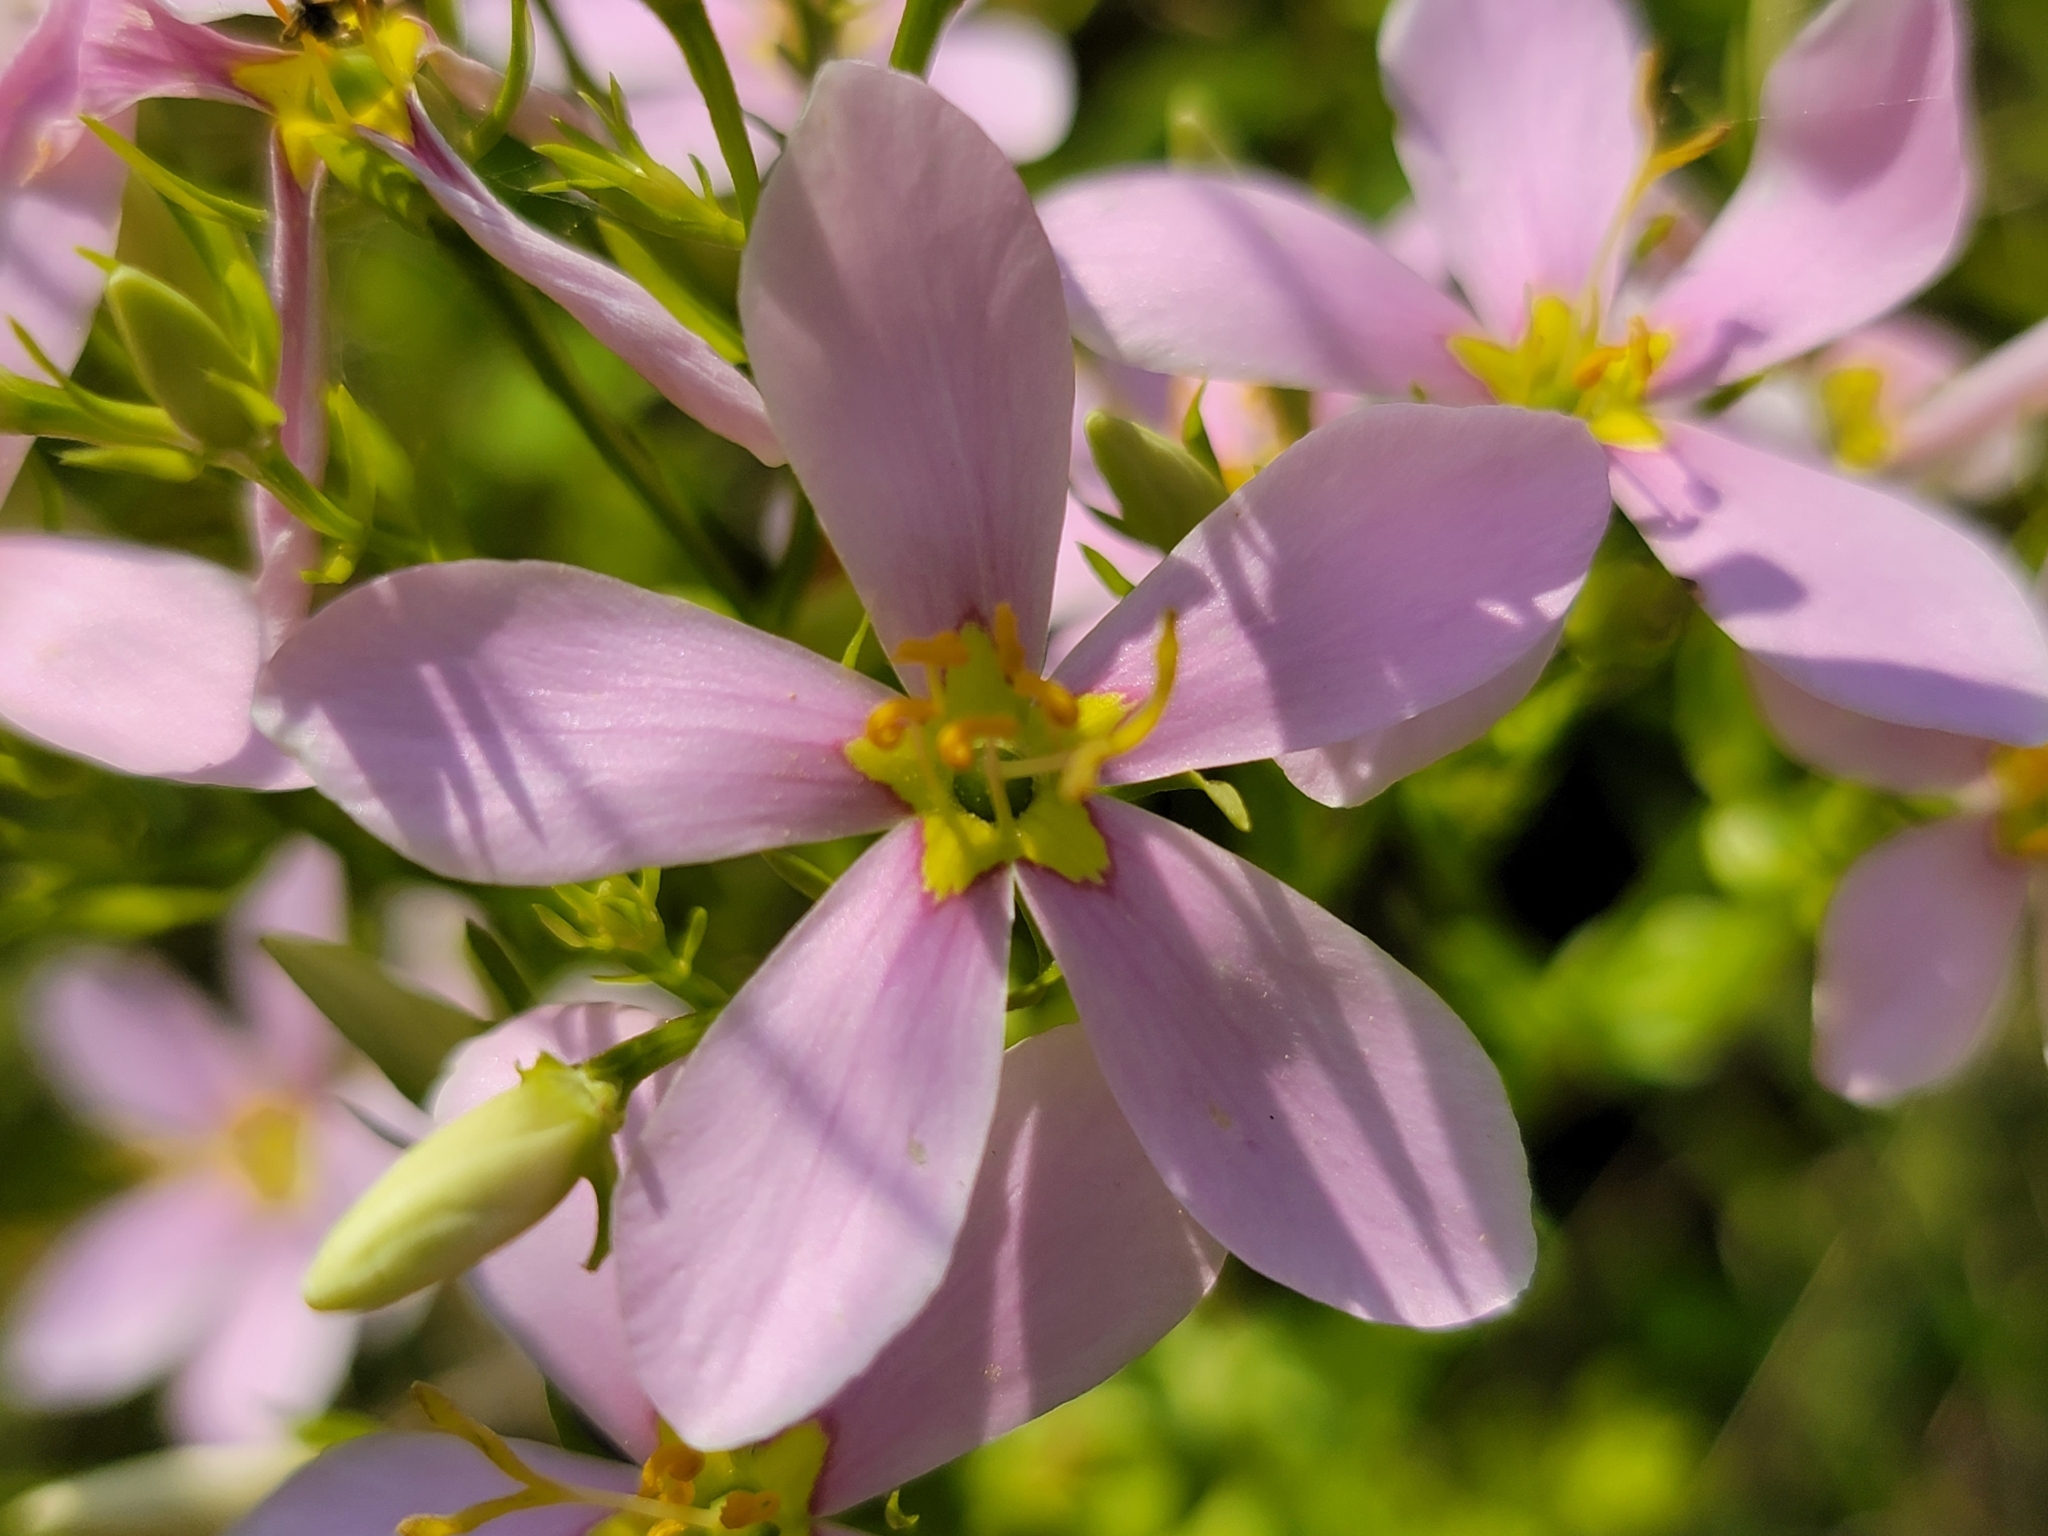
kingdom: Plantae
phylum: Tracheophyta
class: Magnoliopsida
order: Gentianales
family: Gentianaceae
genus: Sabatia
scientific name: Sabatia angularis
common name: Rose-pink
